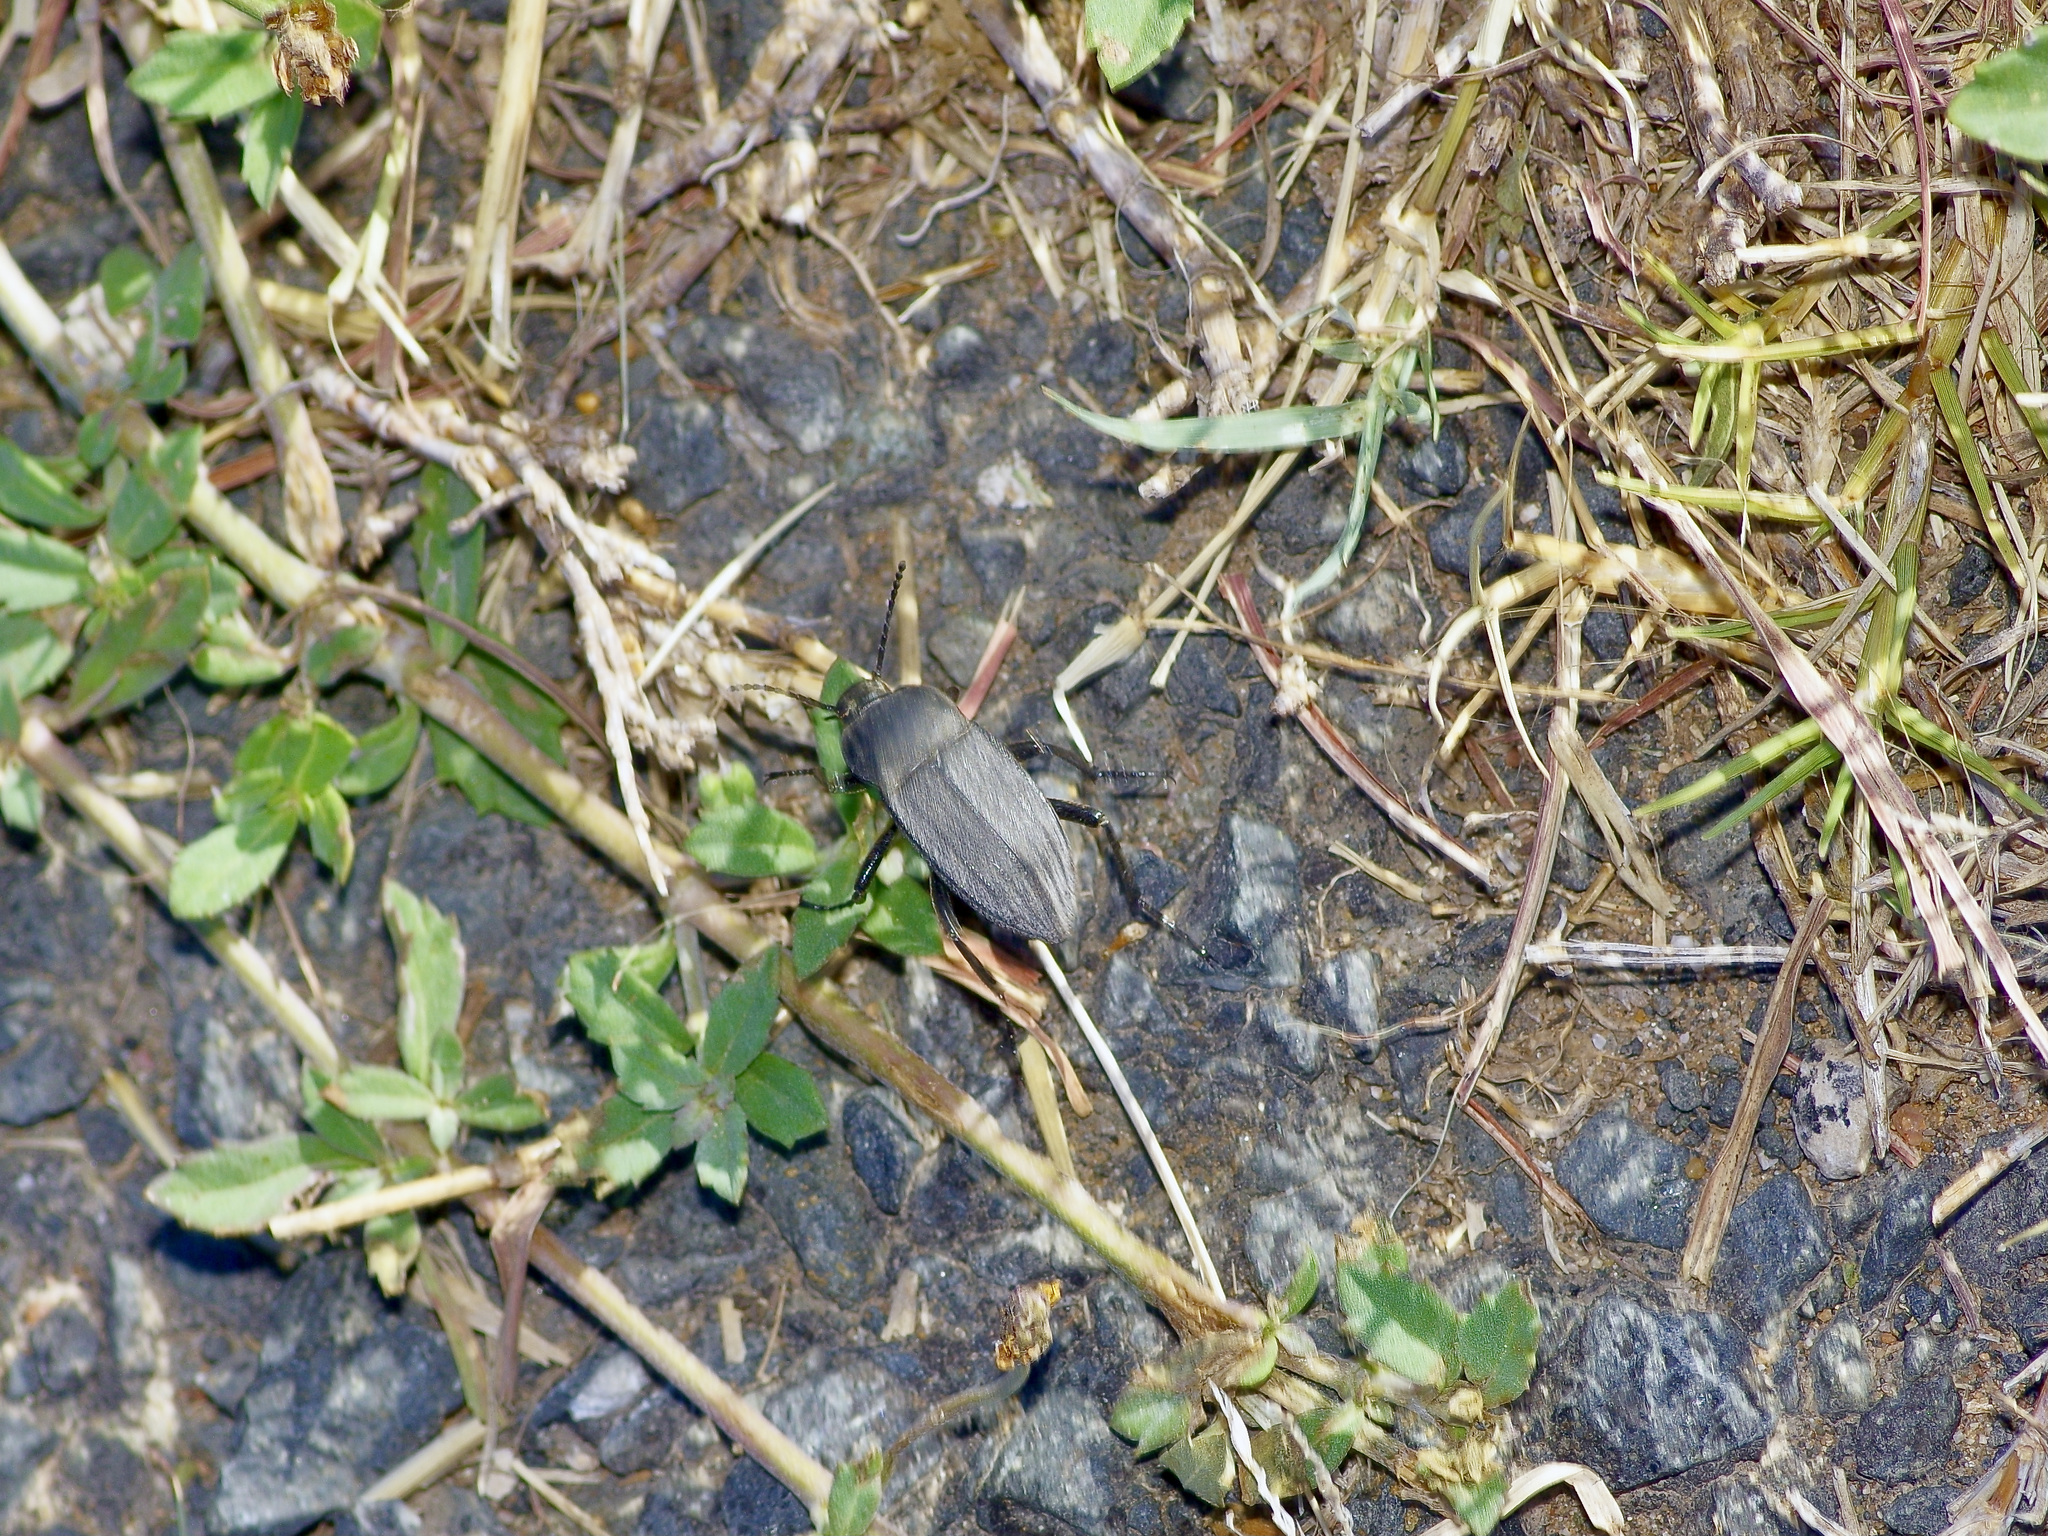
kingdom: Animalia
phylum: Arthropoda
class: Insecta
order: Coleoptera
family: Tenebrionidae
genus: Eleodes
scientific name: Eleodes tricostata
